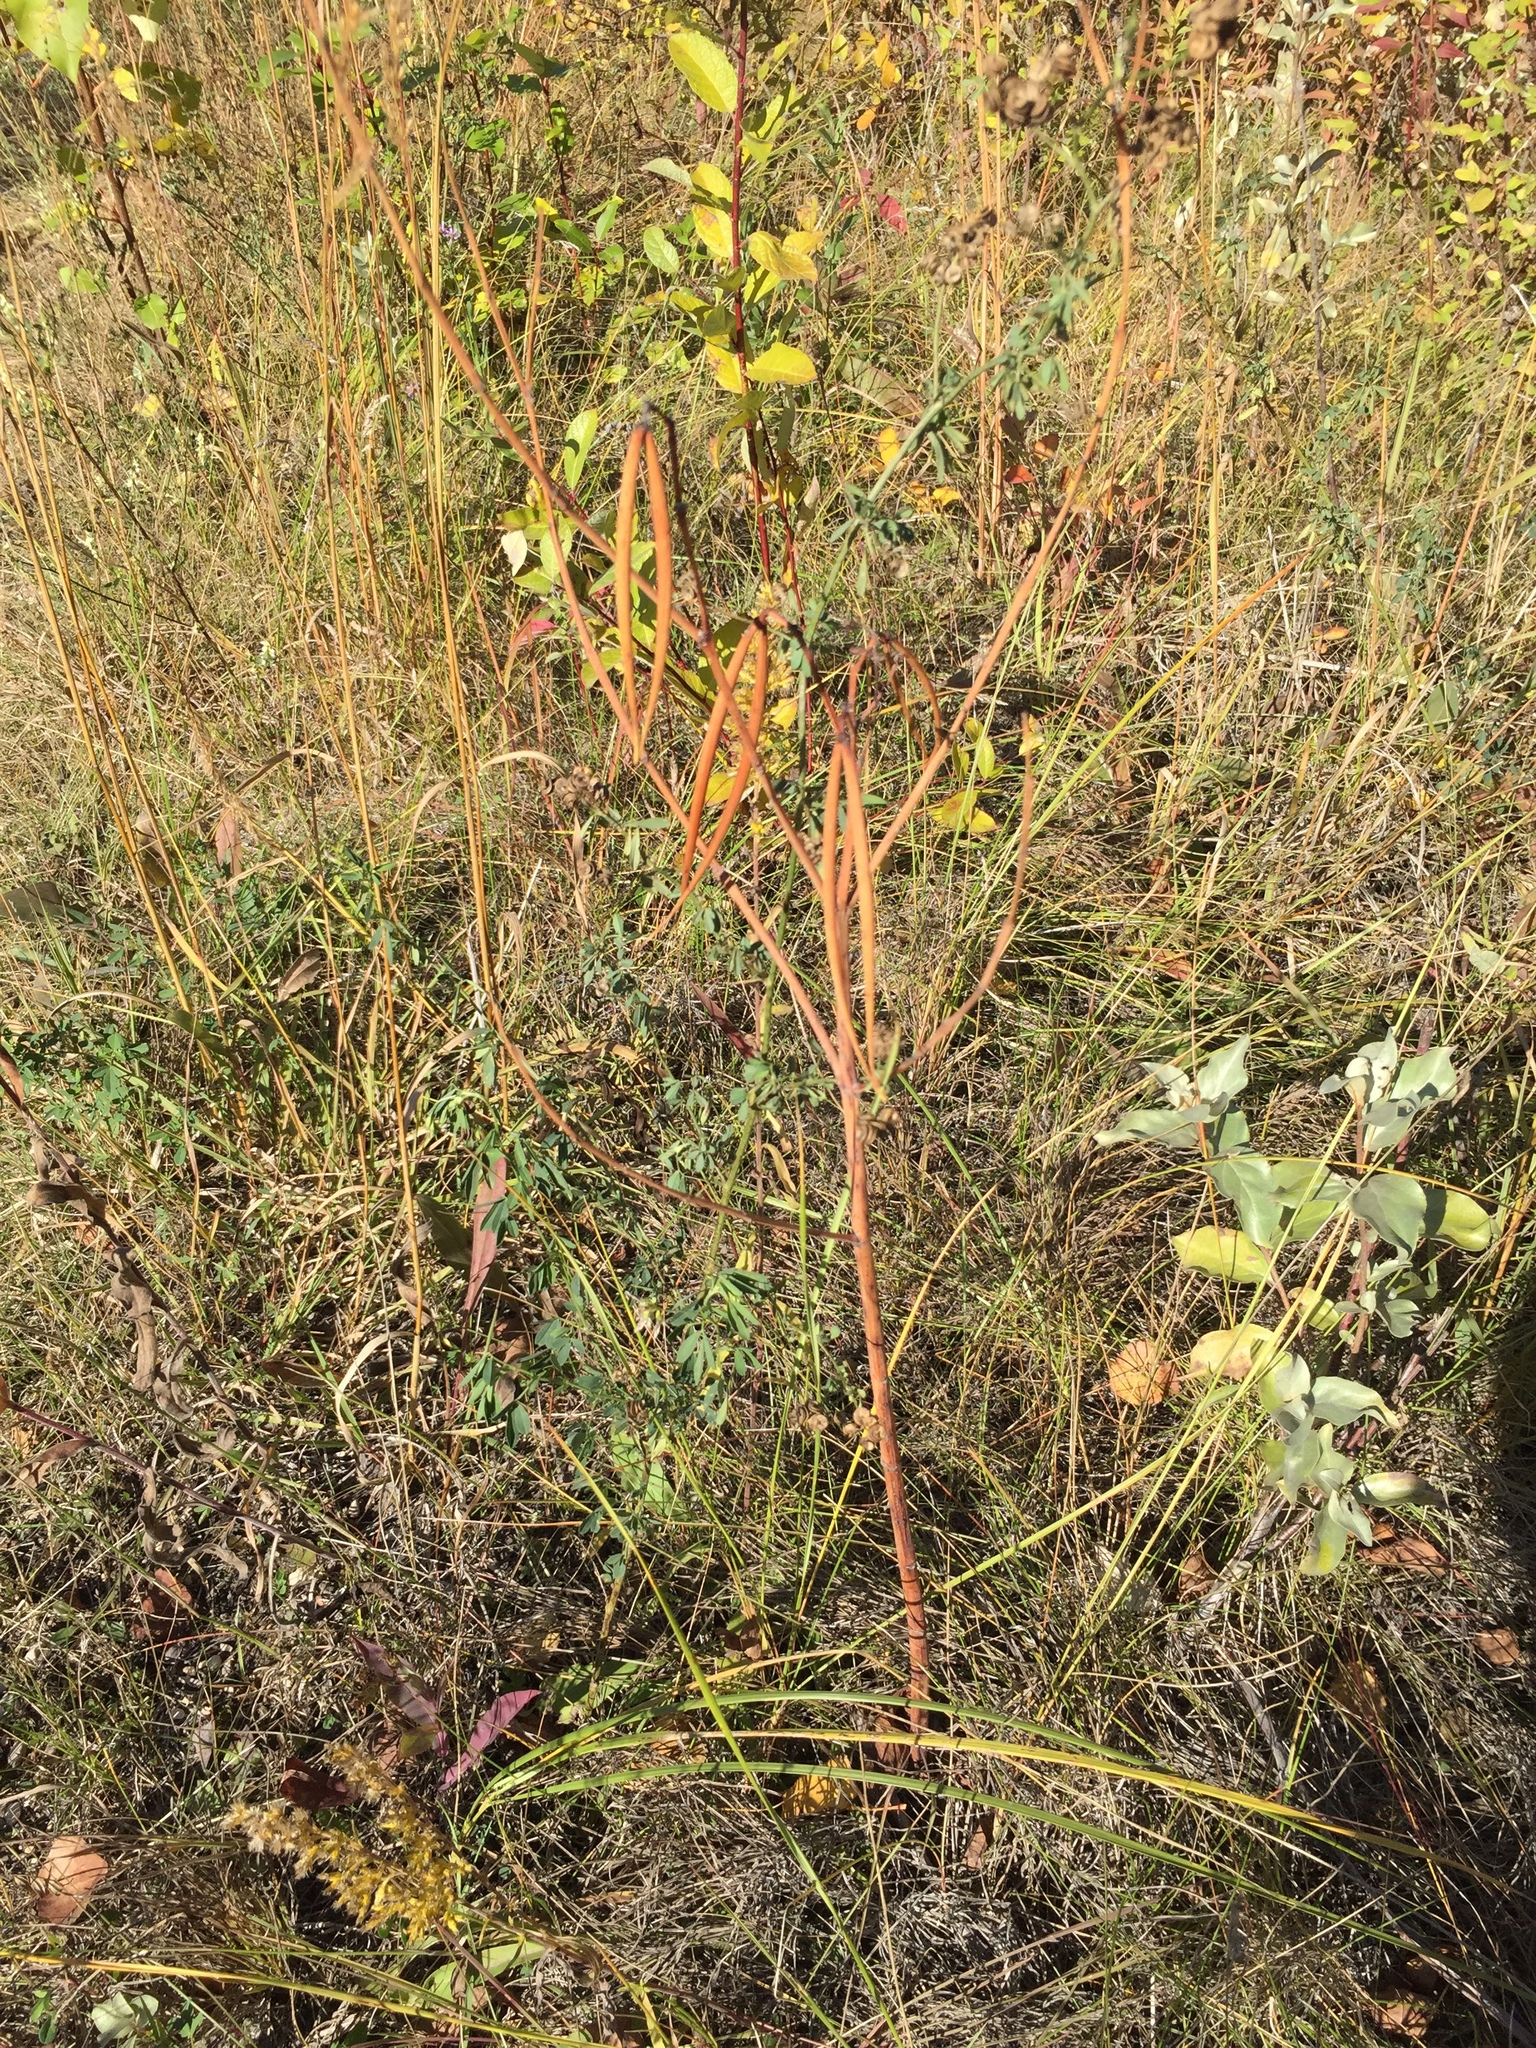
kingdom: Plantae
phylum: Tracheophyta
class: Magnoliopsida
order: Gentianales
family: Apocynaceae
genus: Apocynum
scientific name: Apocynum cannabinum
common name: Hemp dogbane
